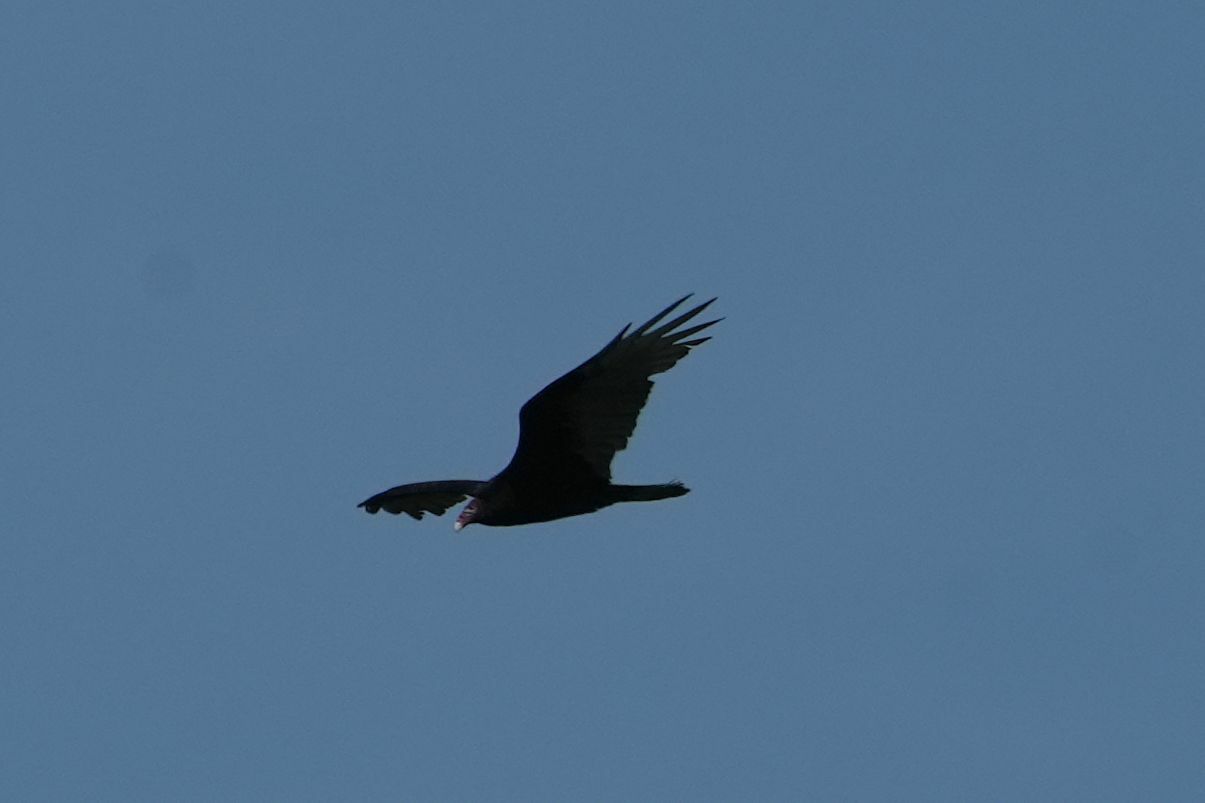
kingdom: Animalia
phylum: Chordata
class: Aves
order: Accipitriformes
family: Cathartidae
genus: Cathartes
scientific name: Cathartes aura
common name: Turkey vulture
